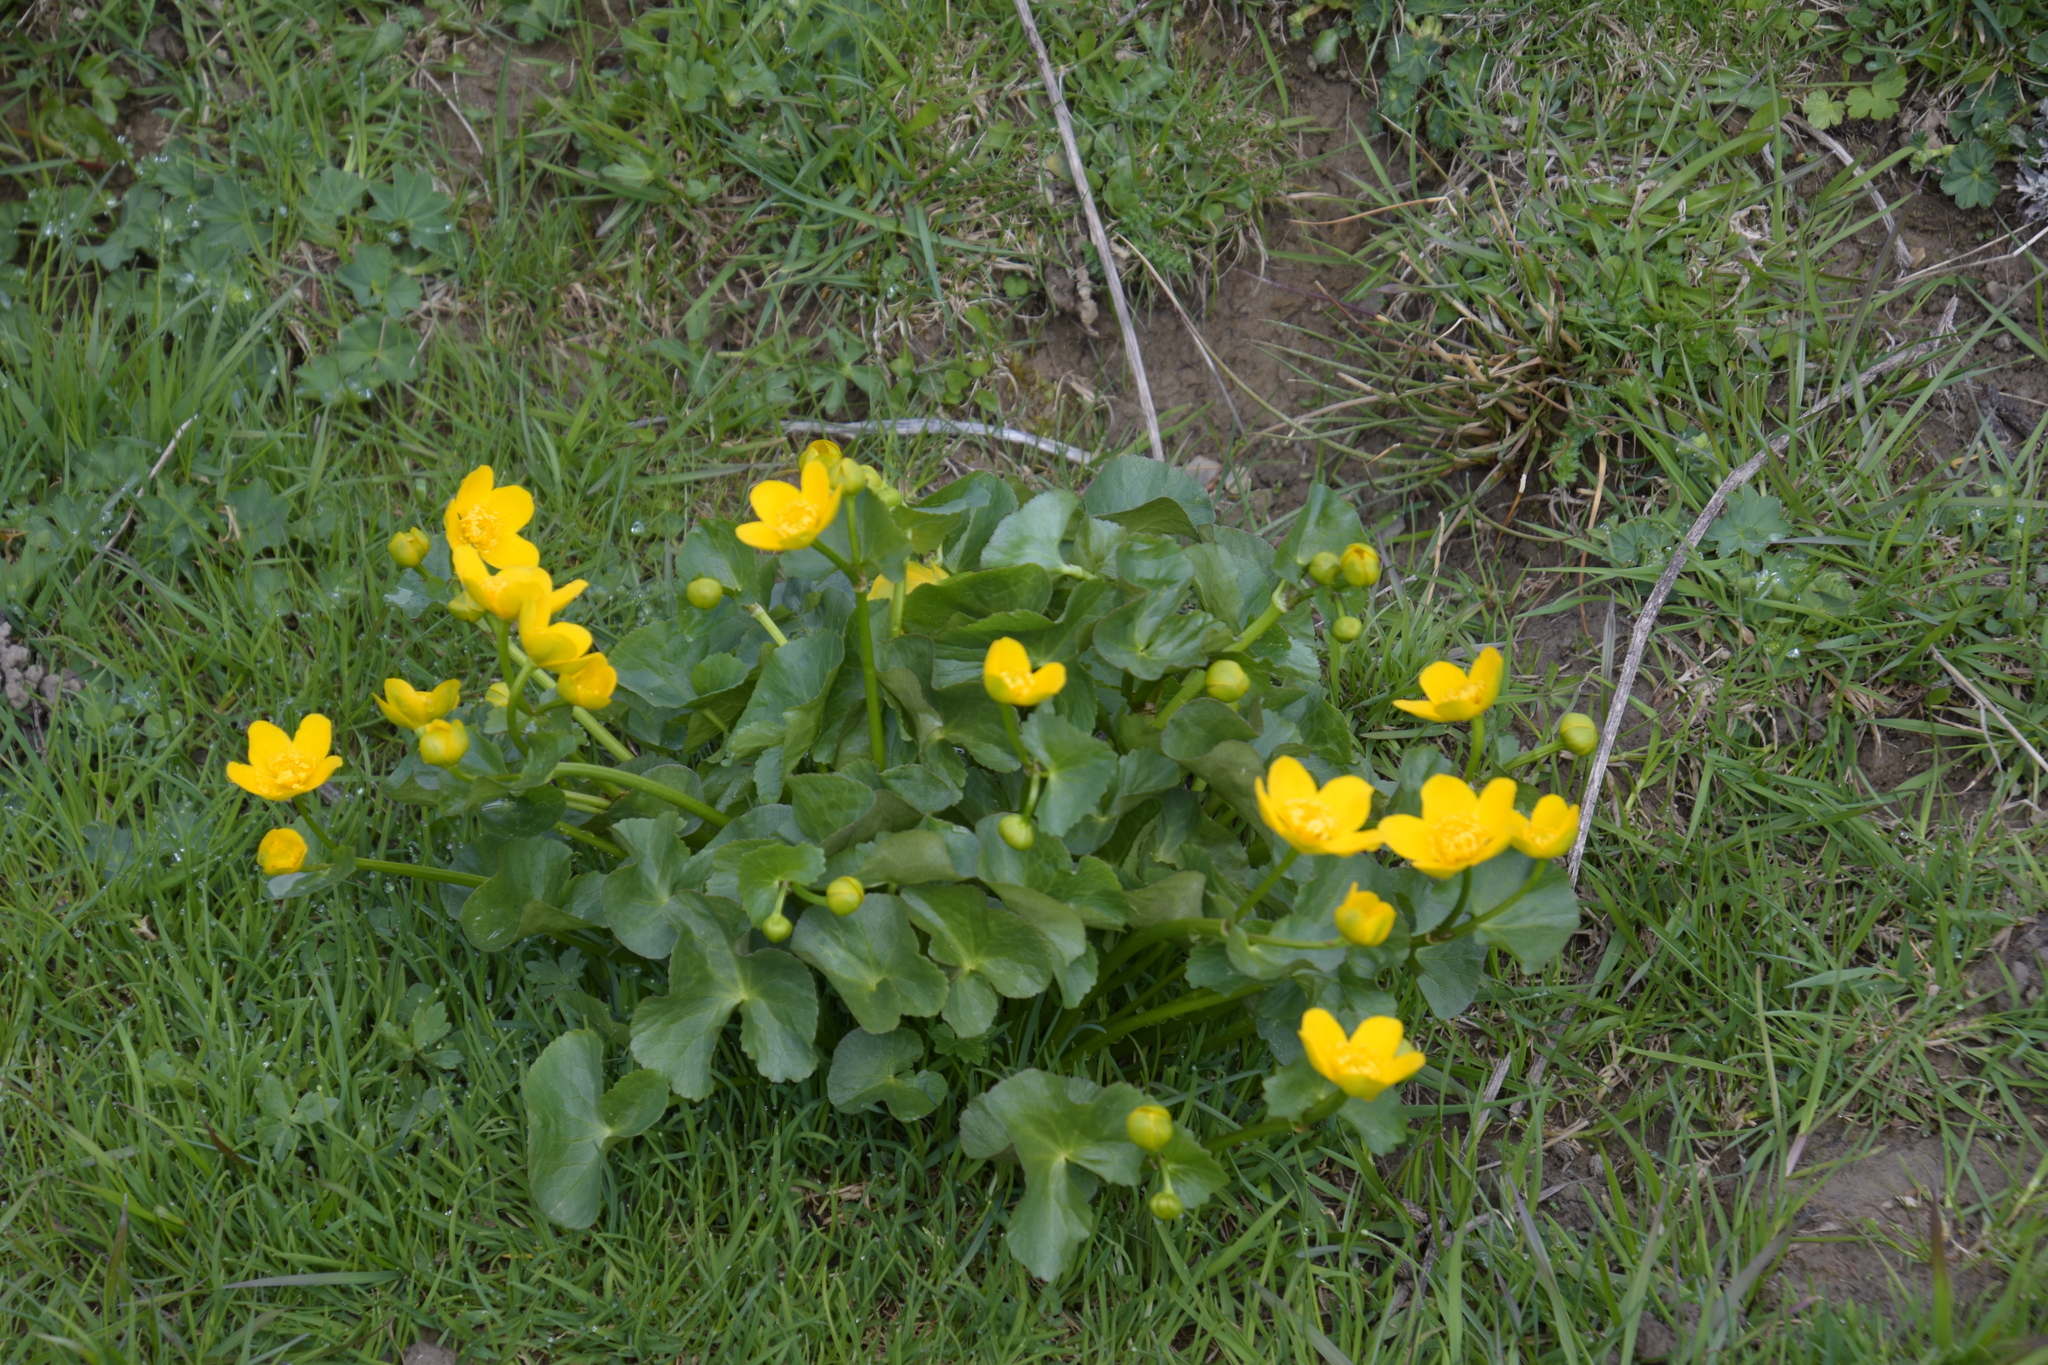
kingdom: Plantae
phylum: Tracheophyta
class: Magnoliopsida
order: Ranunculales
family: Ranunculaceae
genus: Caltha
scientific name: Caltha palustris
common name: Marsh marigold
